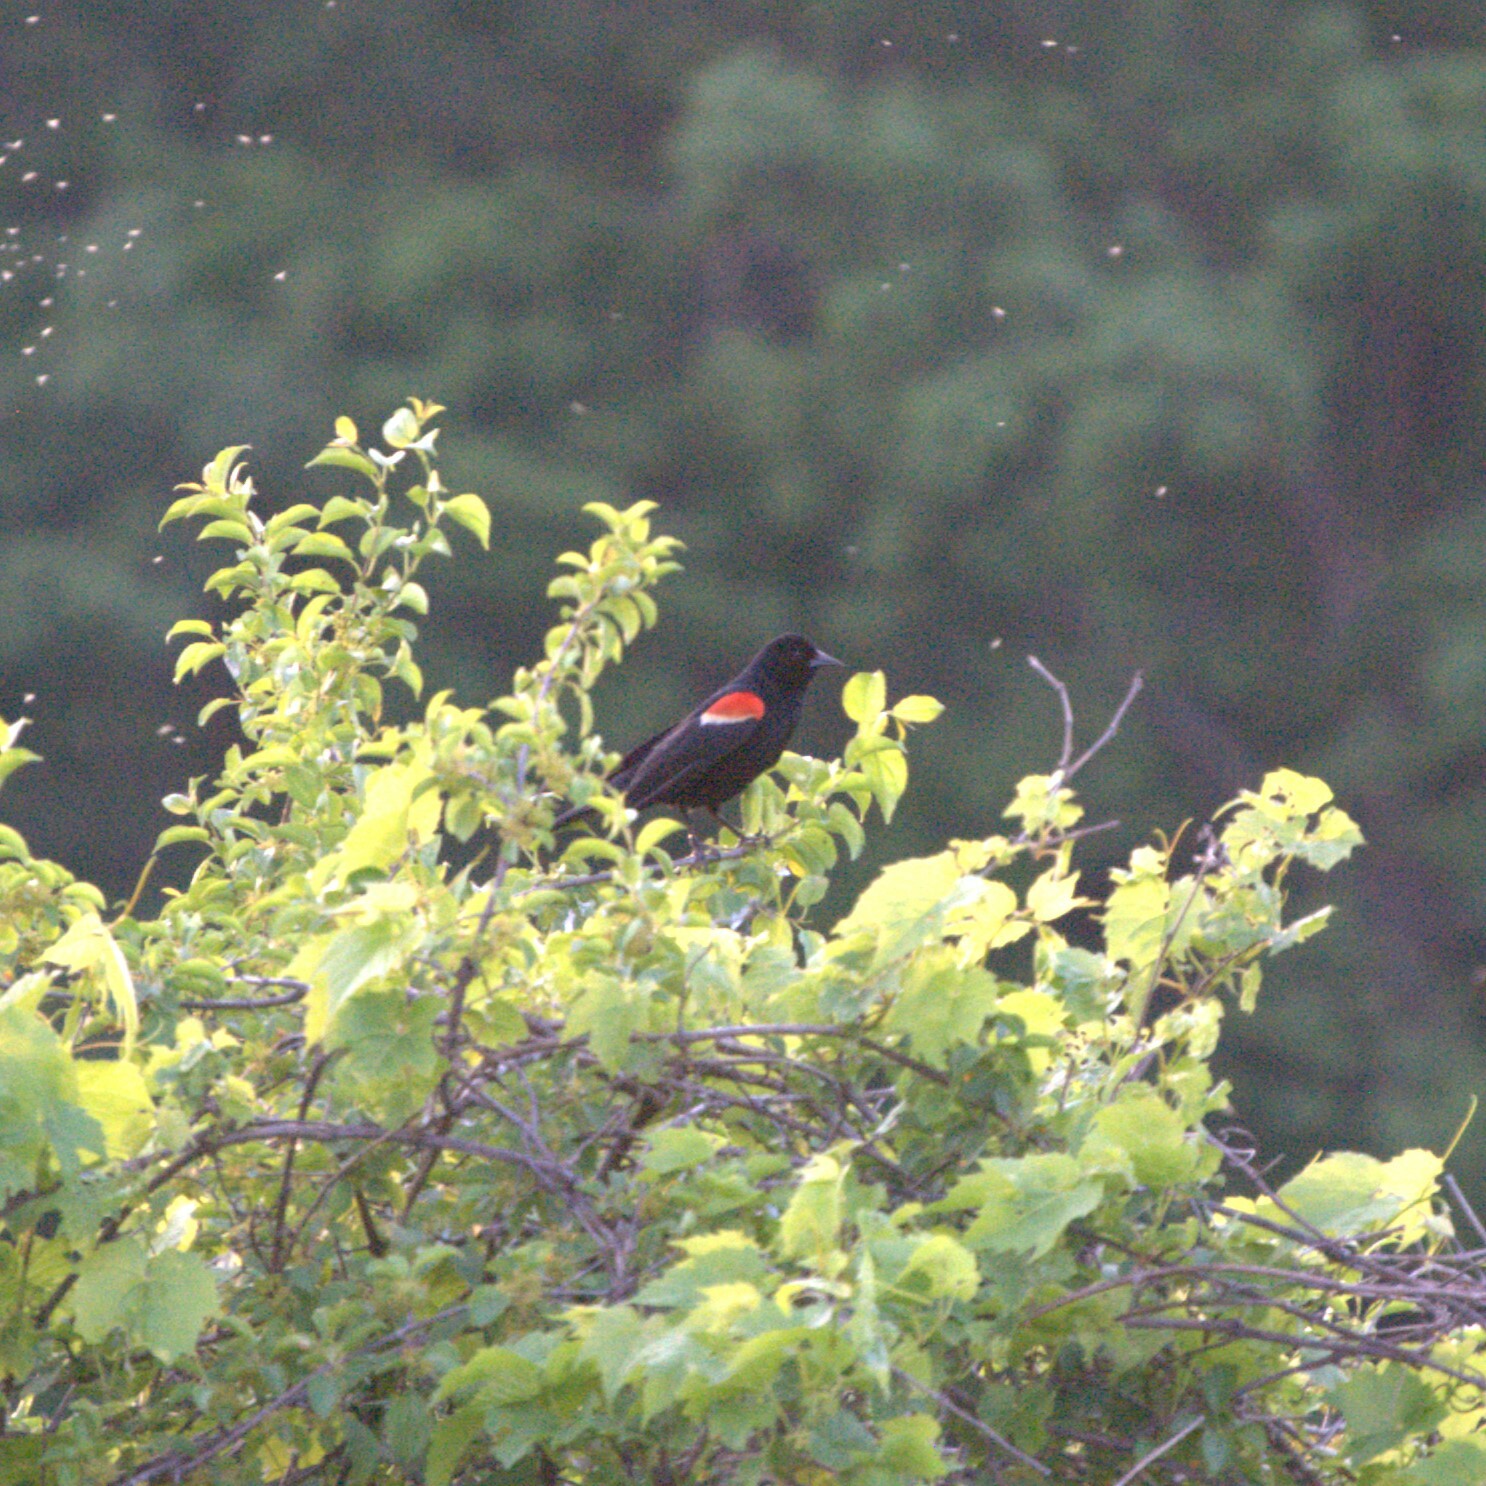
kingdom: Animalia
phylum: Chordata
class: Aves
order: Passeriformes
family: Icteridae
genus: Agelaius
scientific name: Agelaius phoeniceus
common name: Red-winged blackbird
